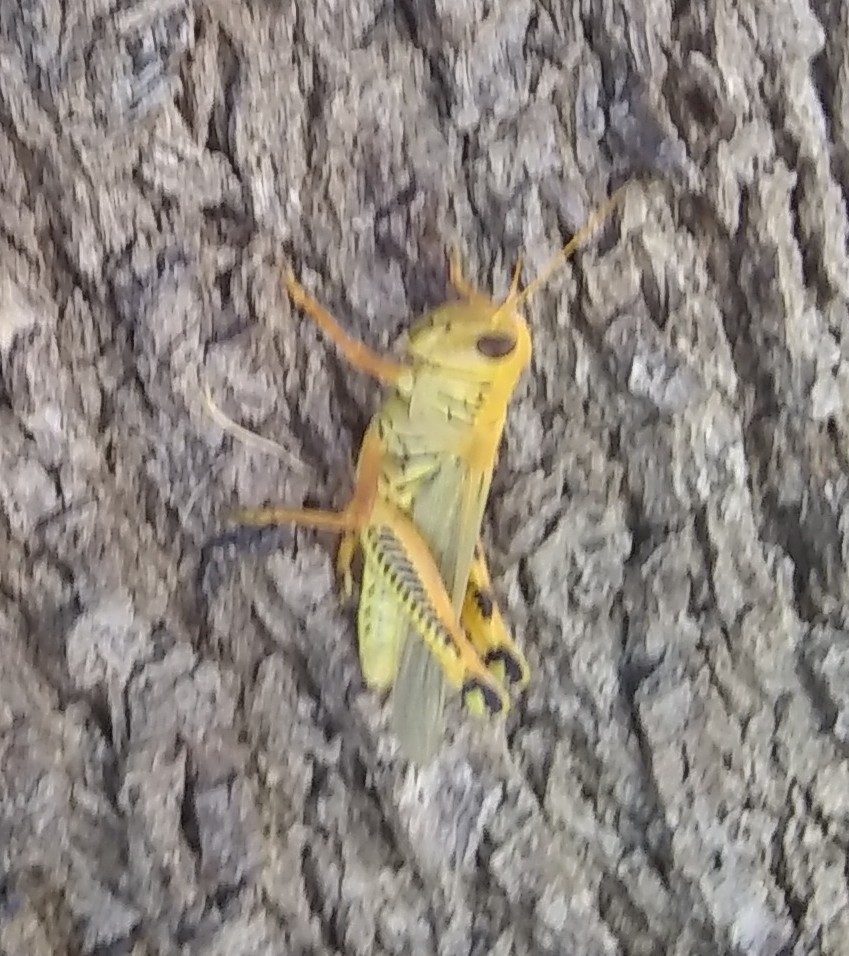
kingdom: Animalia
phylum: Arthropoda
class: Insecta
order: Orthoptera
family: Acrididae
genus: Melanoplus
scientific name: Melanoplus differentialis
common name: Differential grasshopper
